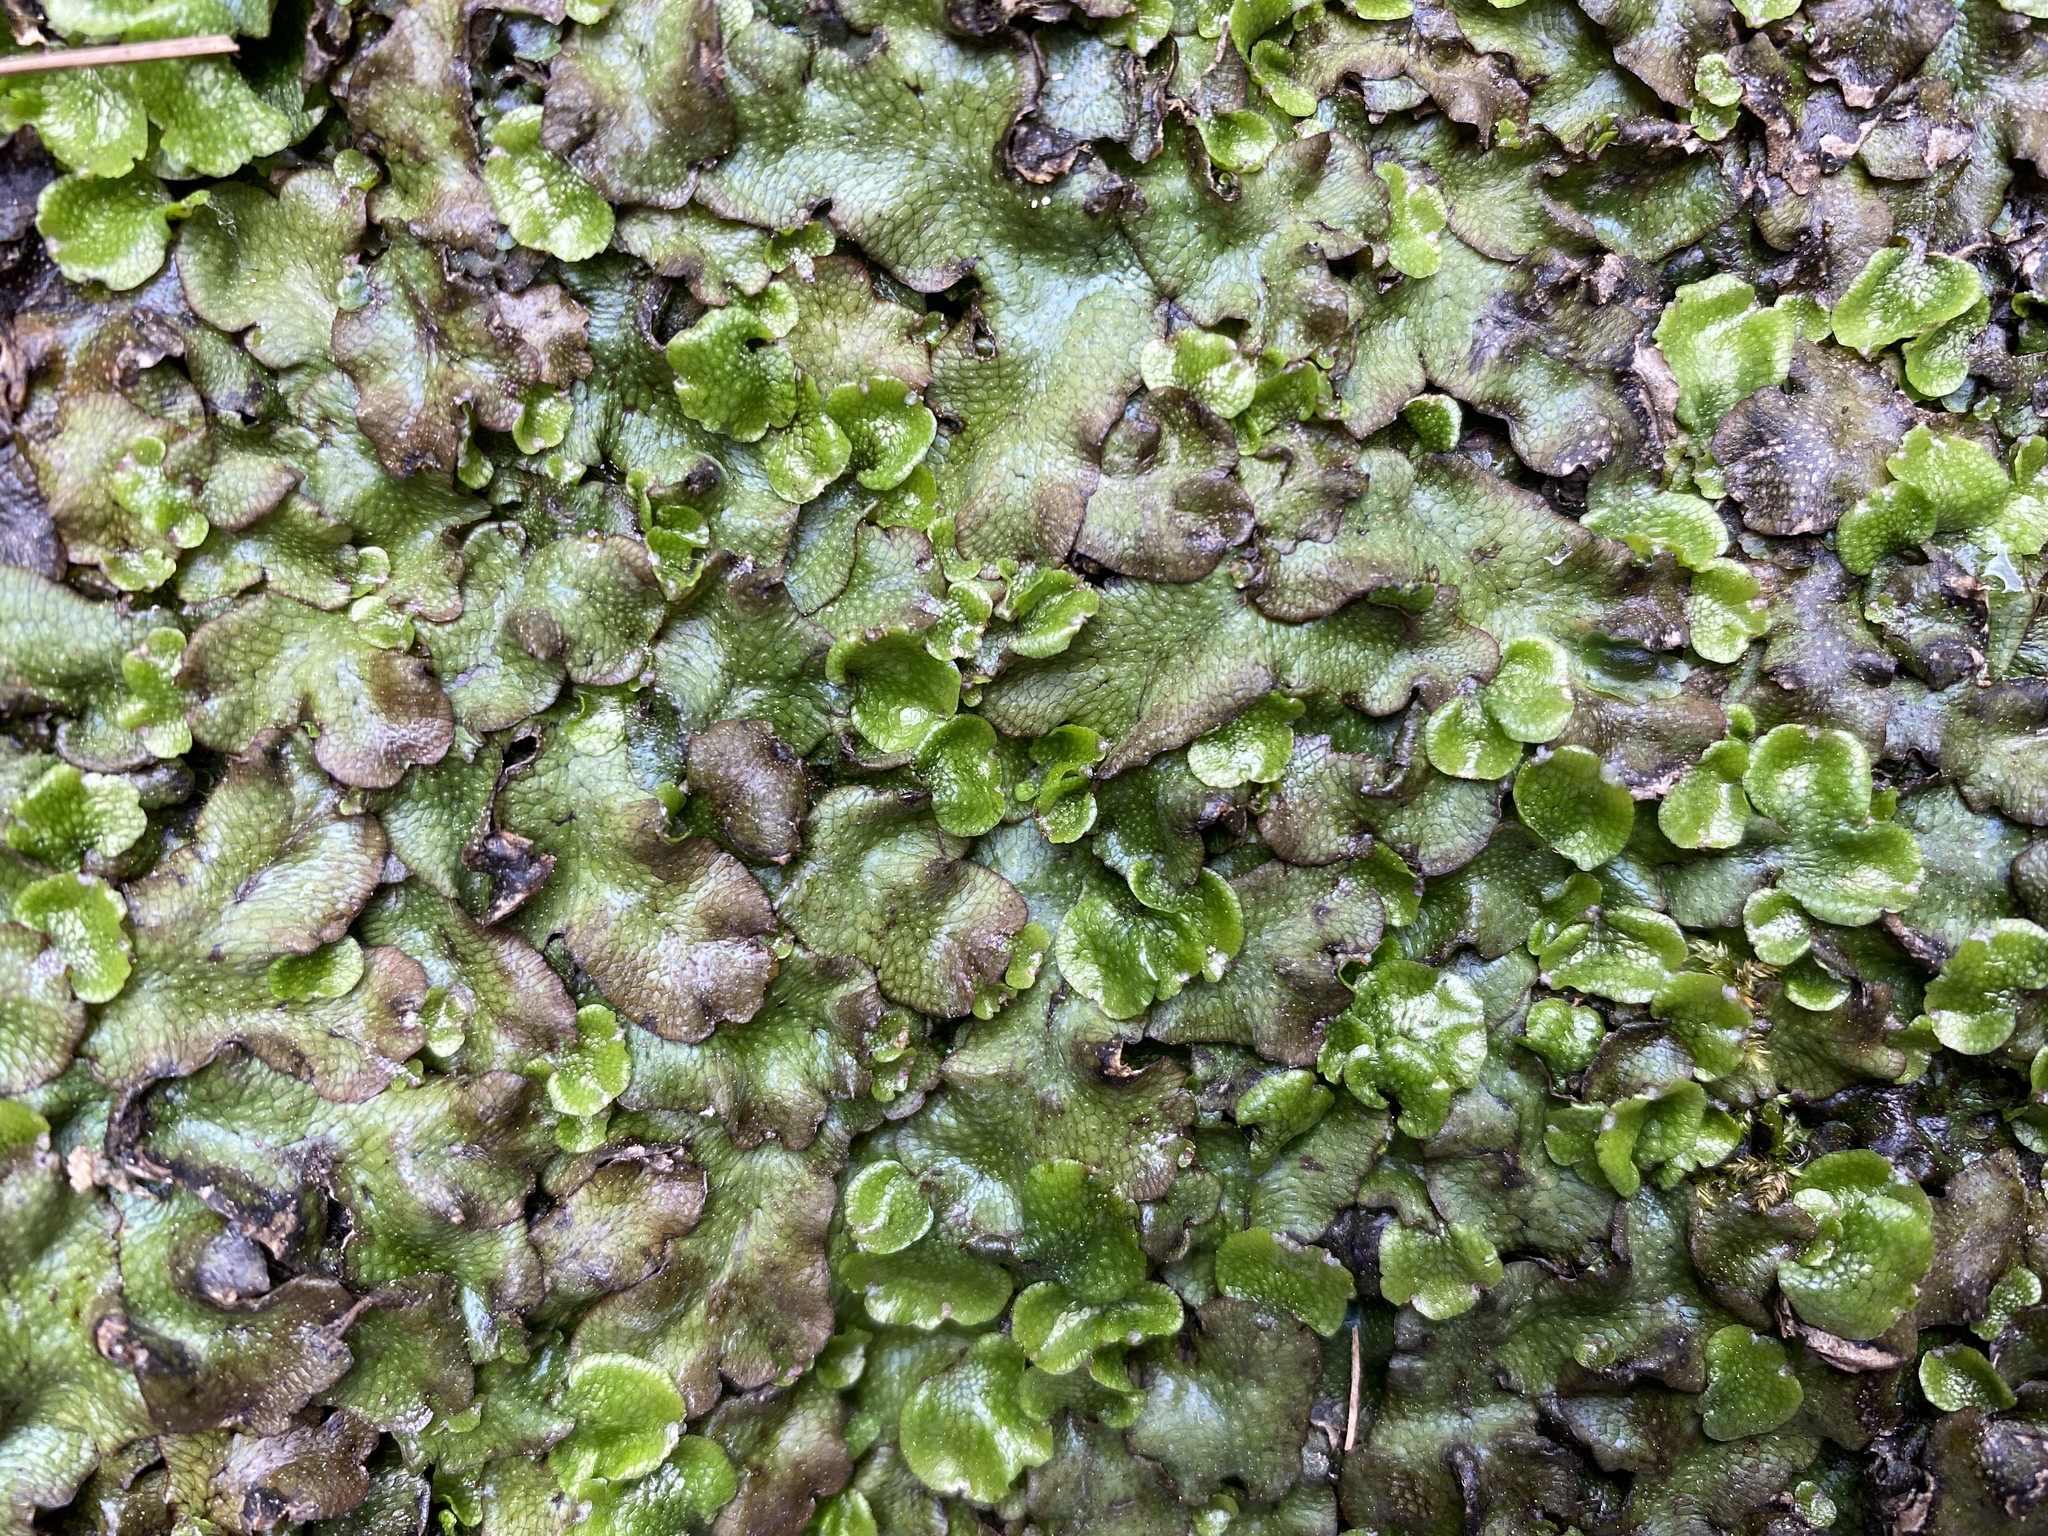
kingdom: Plantae
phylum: Marchantiophyta
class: Marchantiopsida
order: Marchantiales
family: Conocephalaceae
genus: Conocephalum
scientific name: Conocephalum conicum
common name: Great scented liverwort
